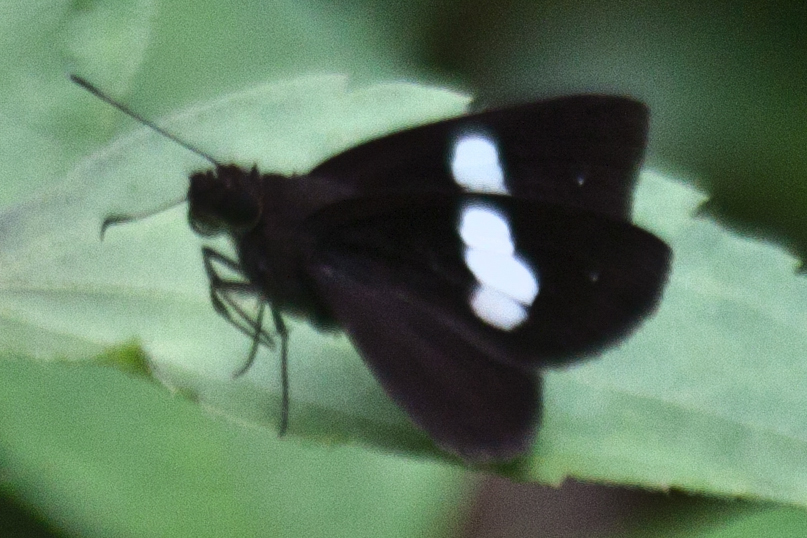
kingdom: Animalia
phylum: Arthropoda
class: Insecta
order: Lepidoptera
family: Hesperiidae
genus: Notocrypta
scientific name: Notocrypta paralysos
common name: Common banded demon
